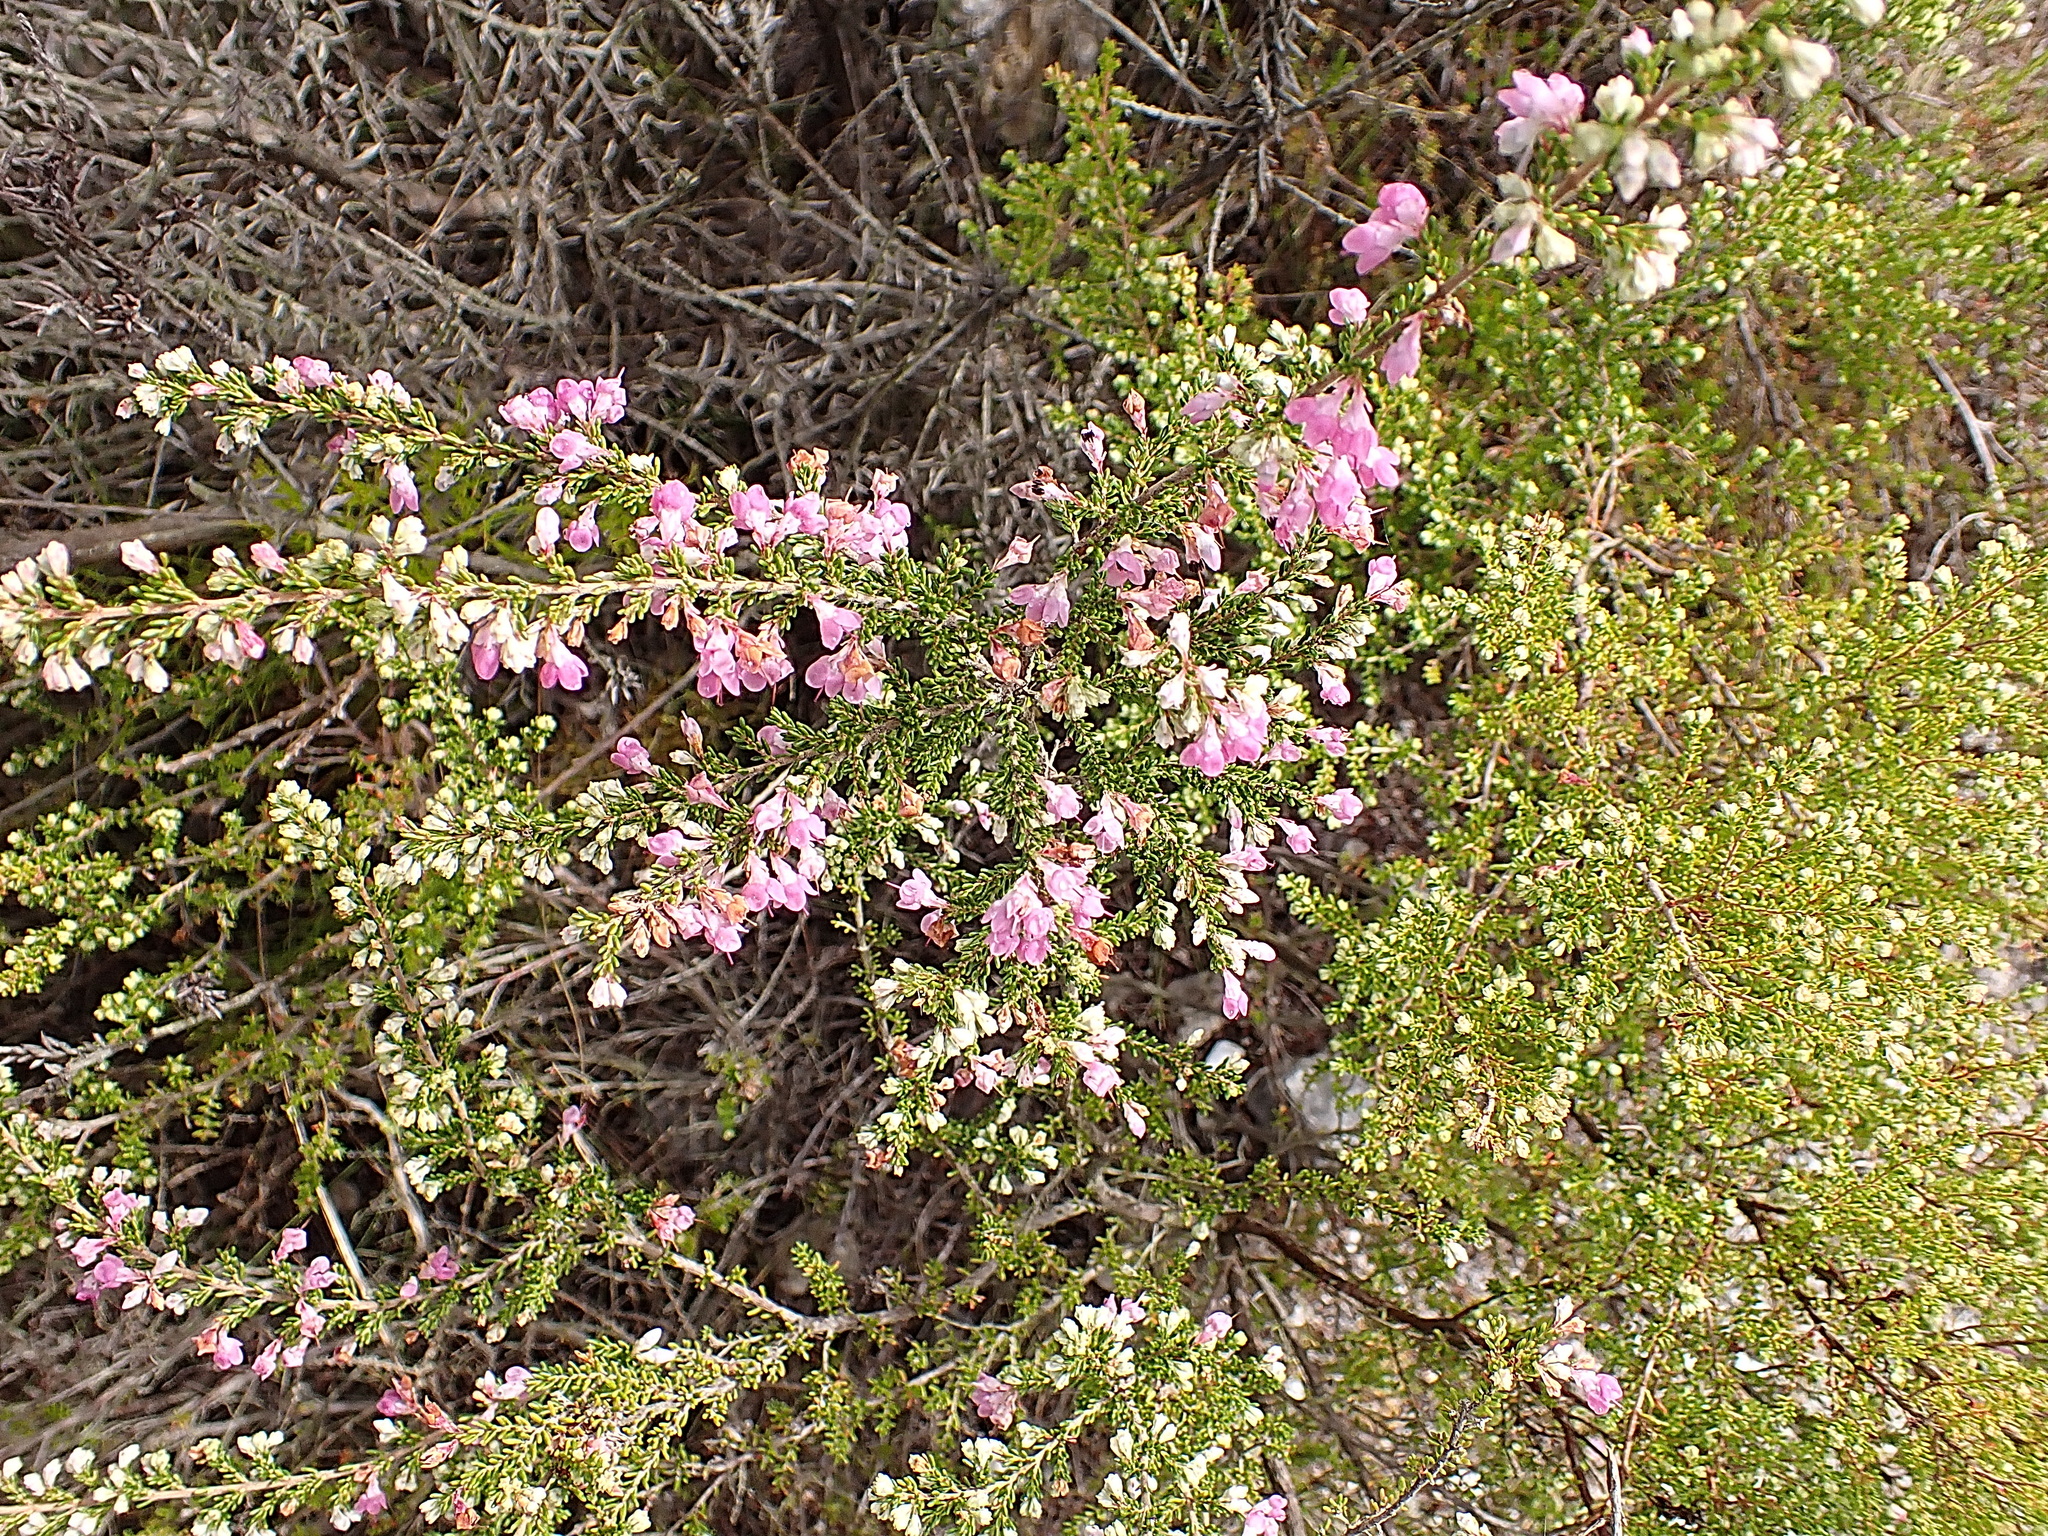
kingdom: Plantae
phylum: Tracheophyta
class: Magnoliopsida
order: Ericales
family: Ericaceae
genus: Erica
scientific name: Erica melanthera
